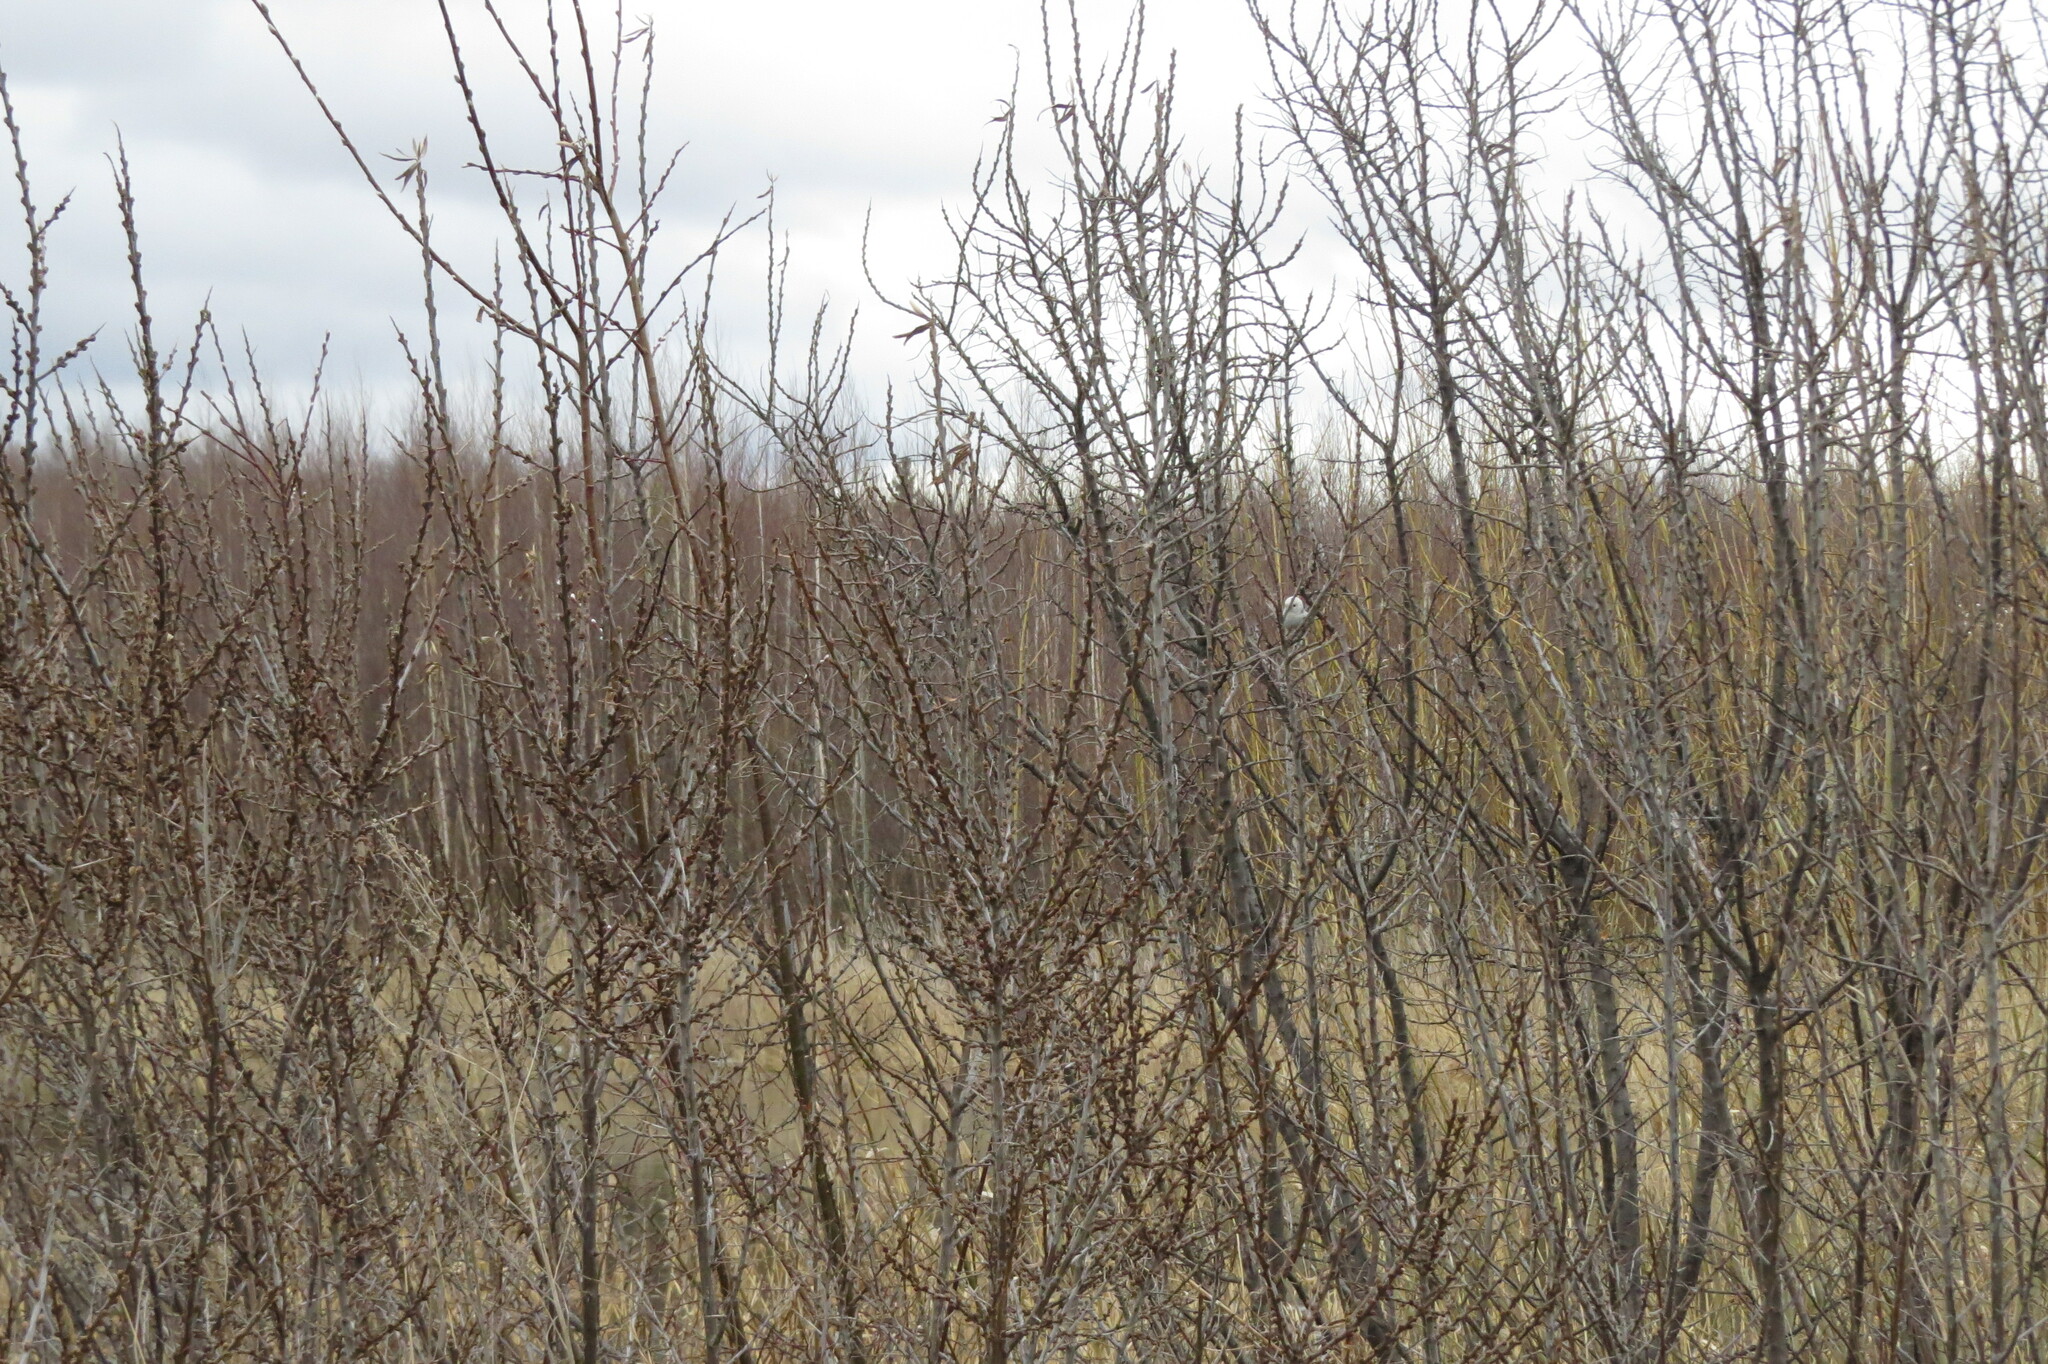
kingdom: Animalia
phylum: Chordata
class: Aves
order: Passeriformes
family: Aegithalidae
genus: Aegithalos
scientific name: Aegithalos caudatus
